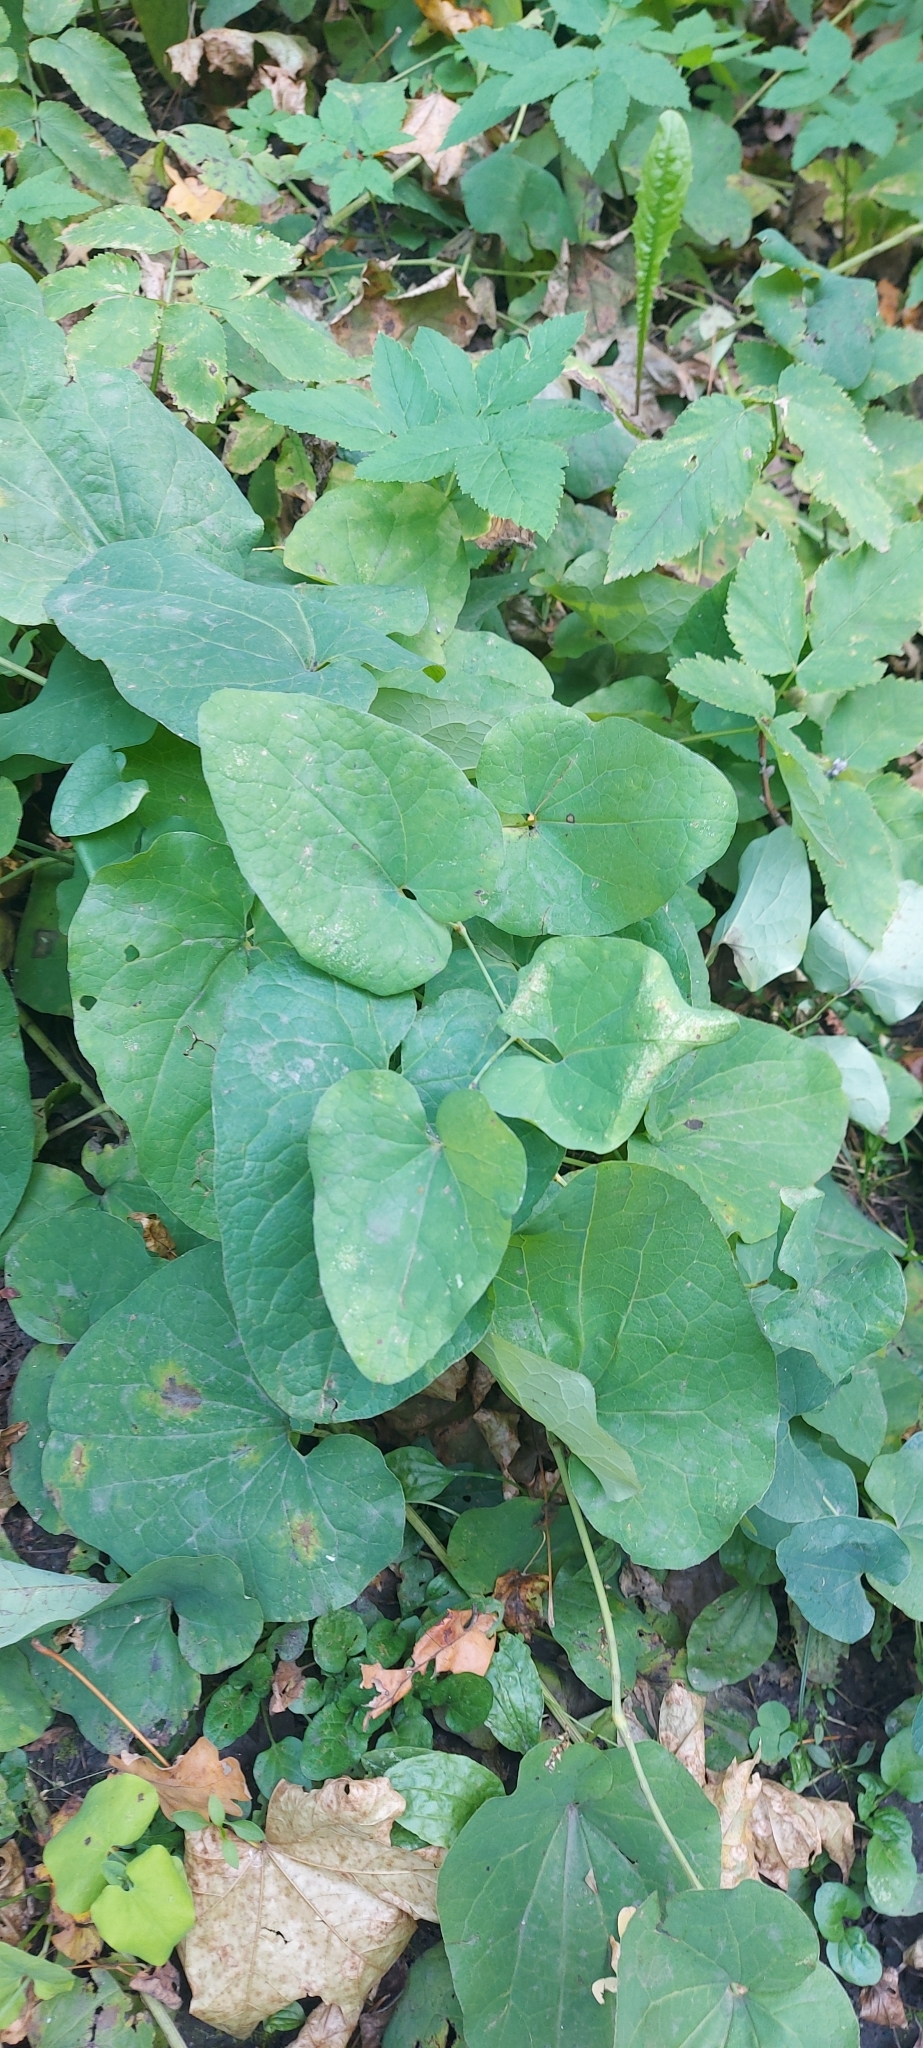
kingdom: Plantae
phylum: Tracheophyta
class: Magnoliopsida
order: Piperales
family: Aristolochiaceae
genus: Aristolochia
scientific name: Aristolochia clematitis
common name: Birthwort
